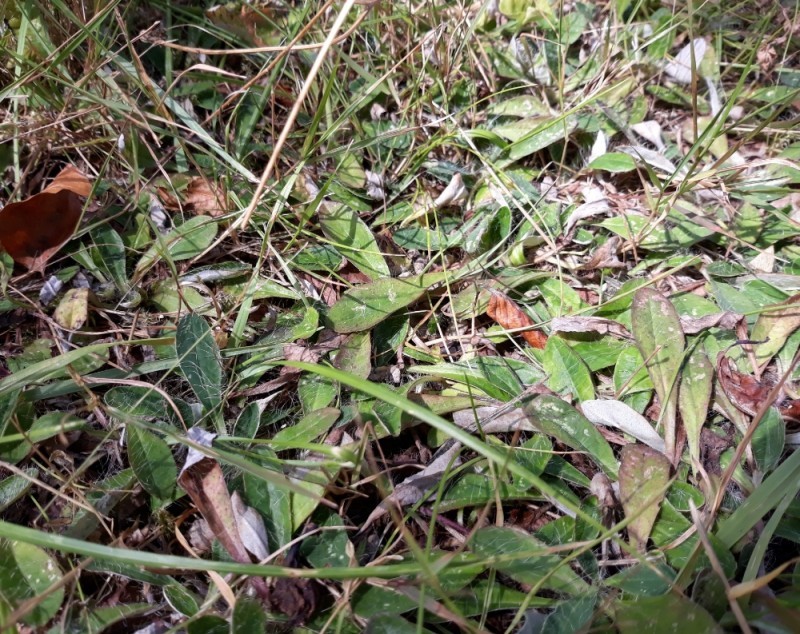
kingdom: Plantae
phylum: Tracheophyta
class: Magnoliopsida
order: Asterales
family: Asteraceae
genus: Pilosella
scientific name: Pilosella officinarum
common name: Mouse-ear hawkweed
